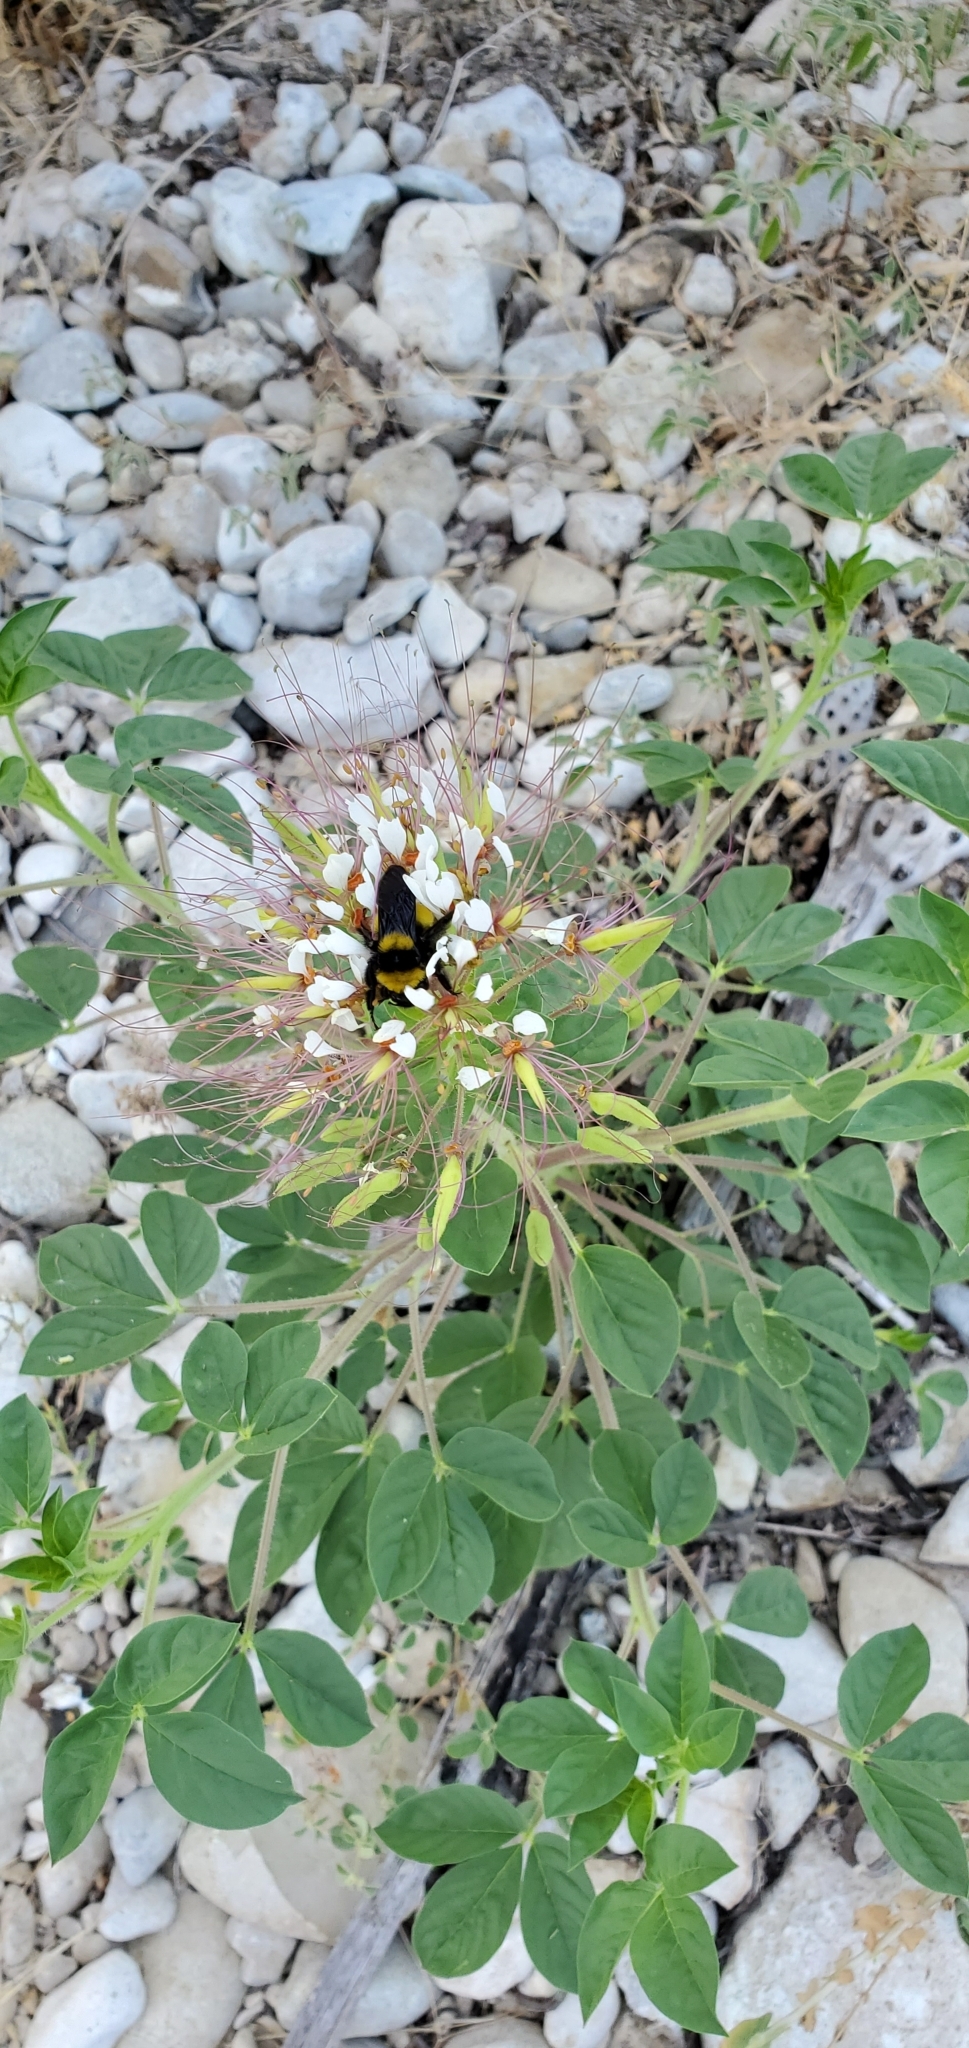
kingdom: Plantae
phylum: Tracheophyta
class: Magnoliopsida
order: Brassicales
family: Cleomaceae
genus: Polanisia
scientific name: Polanisia dodecandra
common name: Clammyweed
